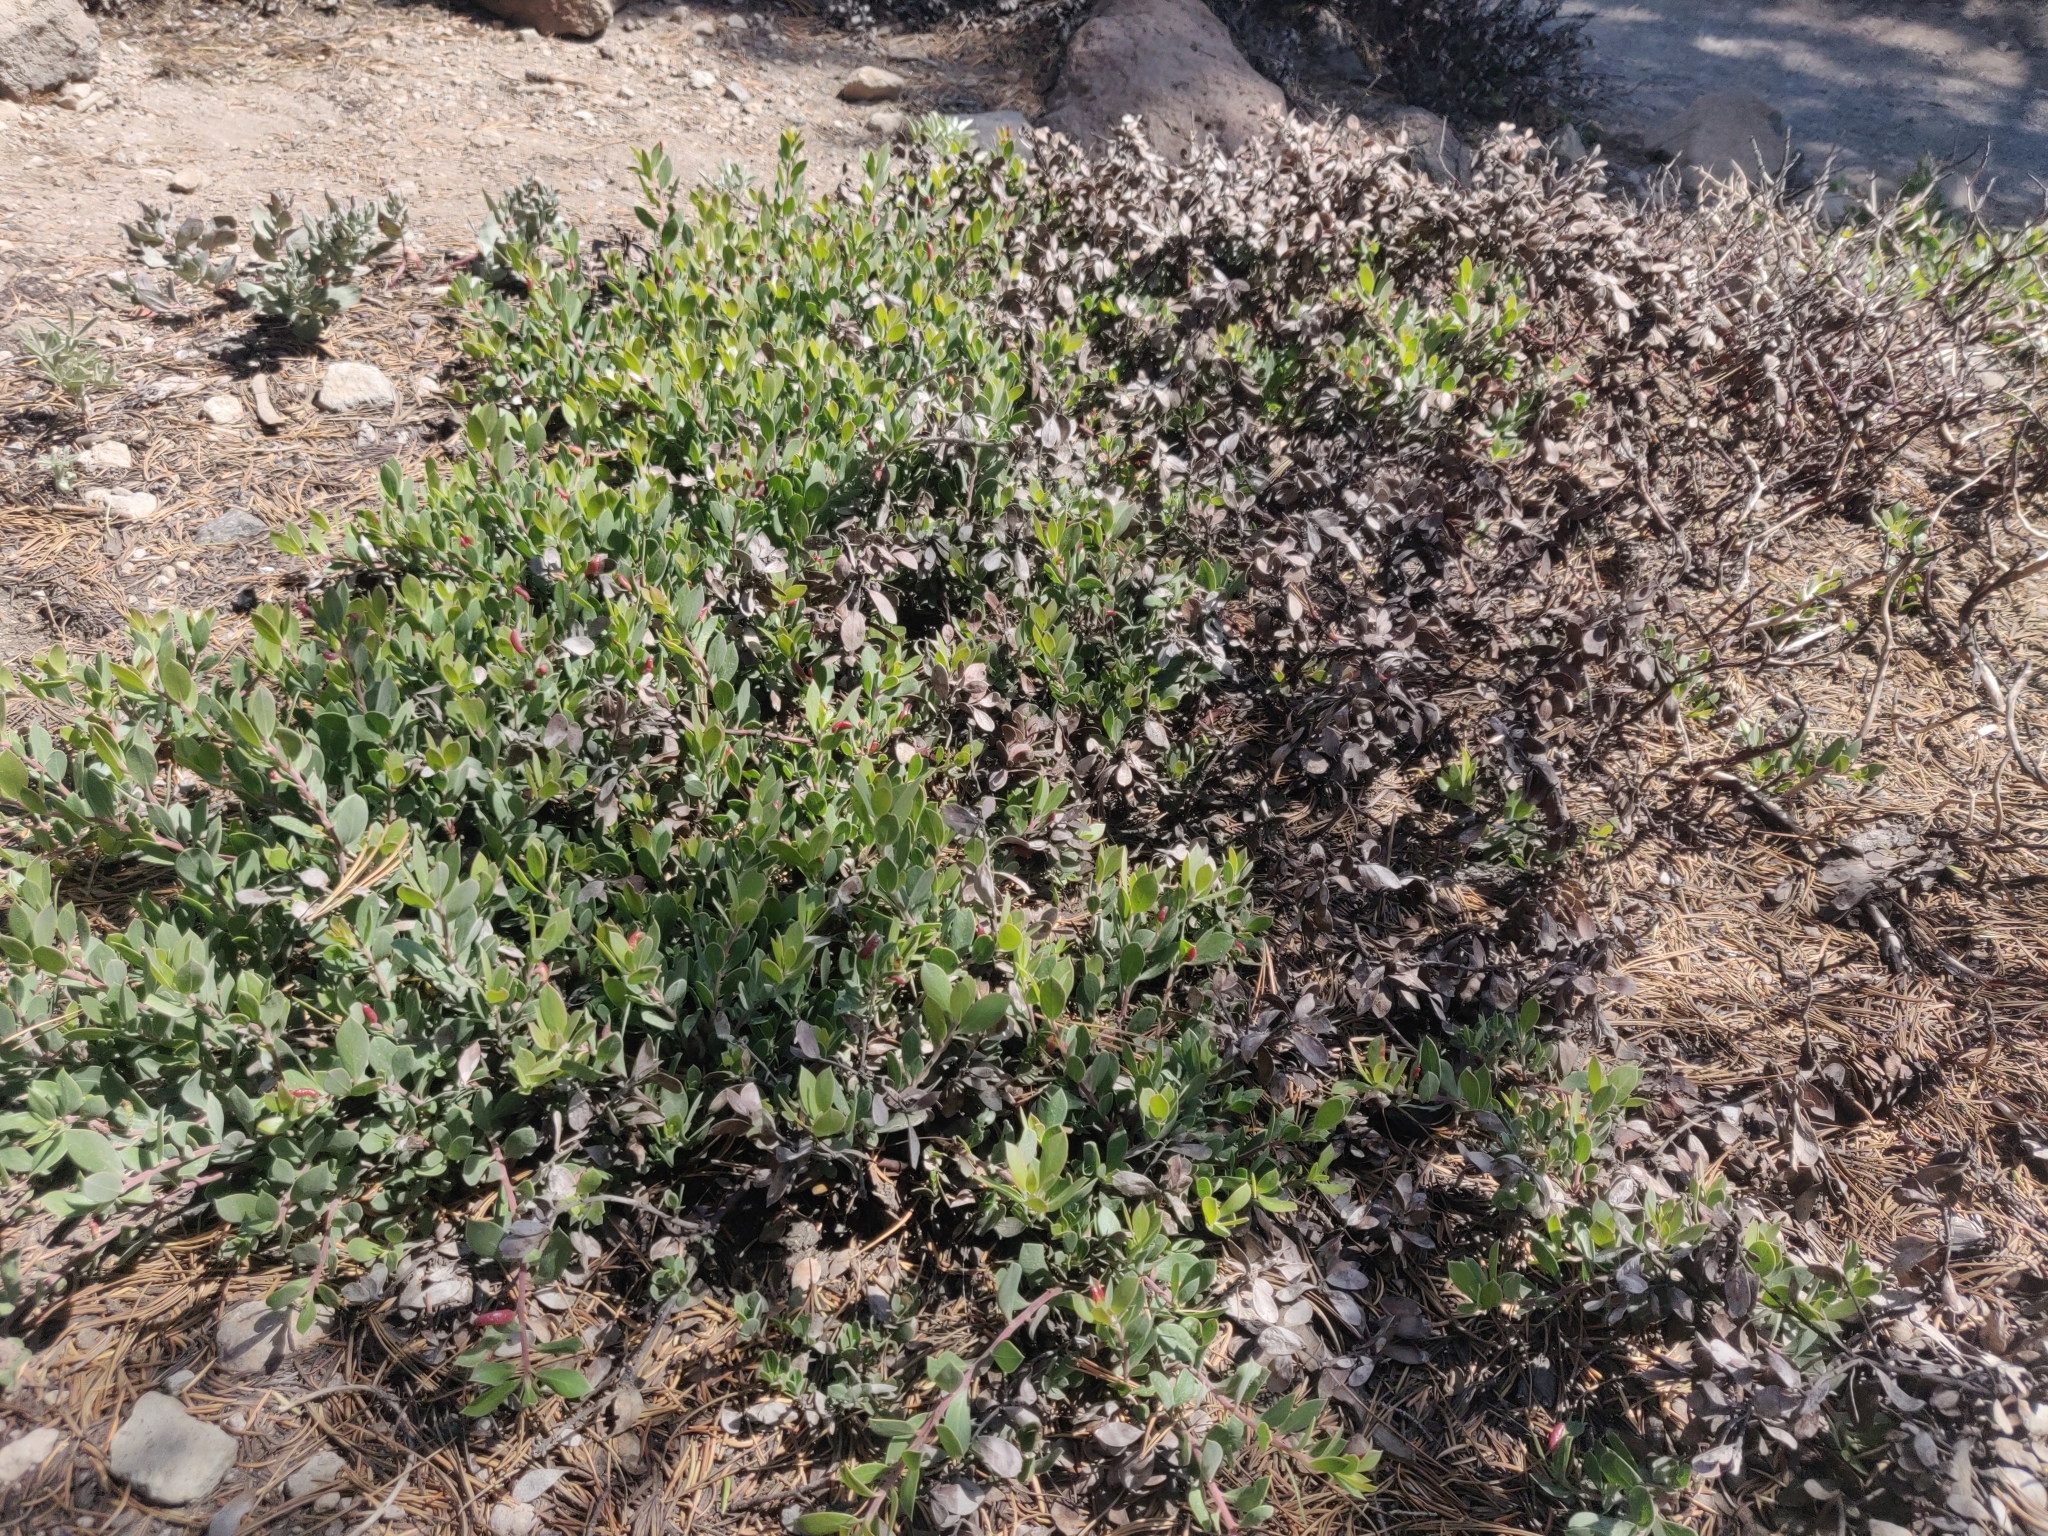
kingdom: Plantae
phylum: Tracheophyta
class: Magnoliopsida
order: Ericales
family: Ericaceae
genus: Arctostaphylos
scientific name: Arctostaphylos nevadensis
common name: Pinemat manzanita
